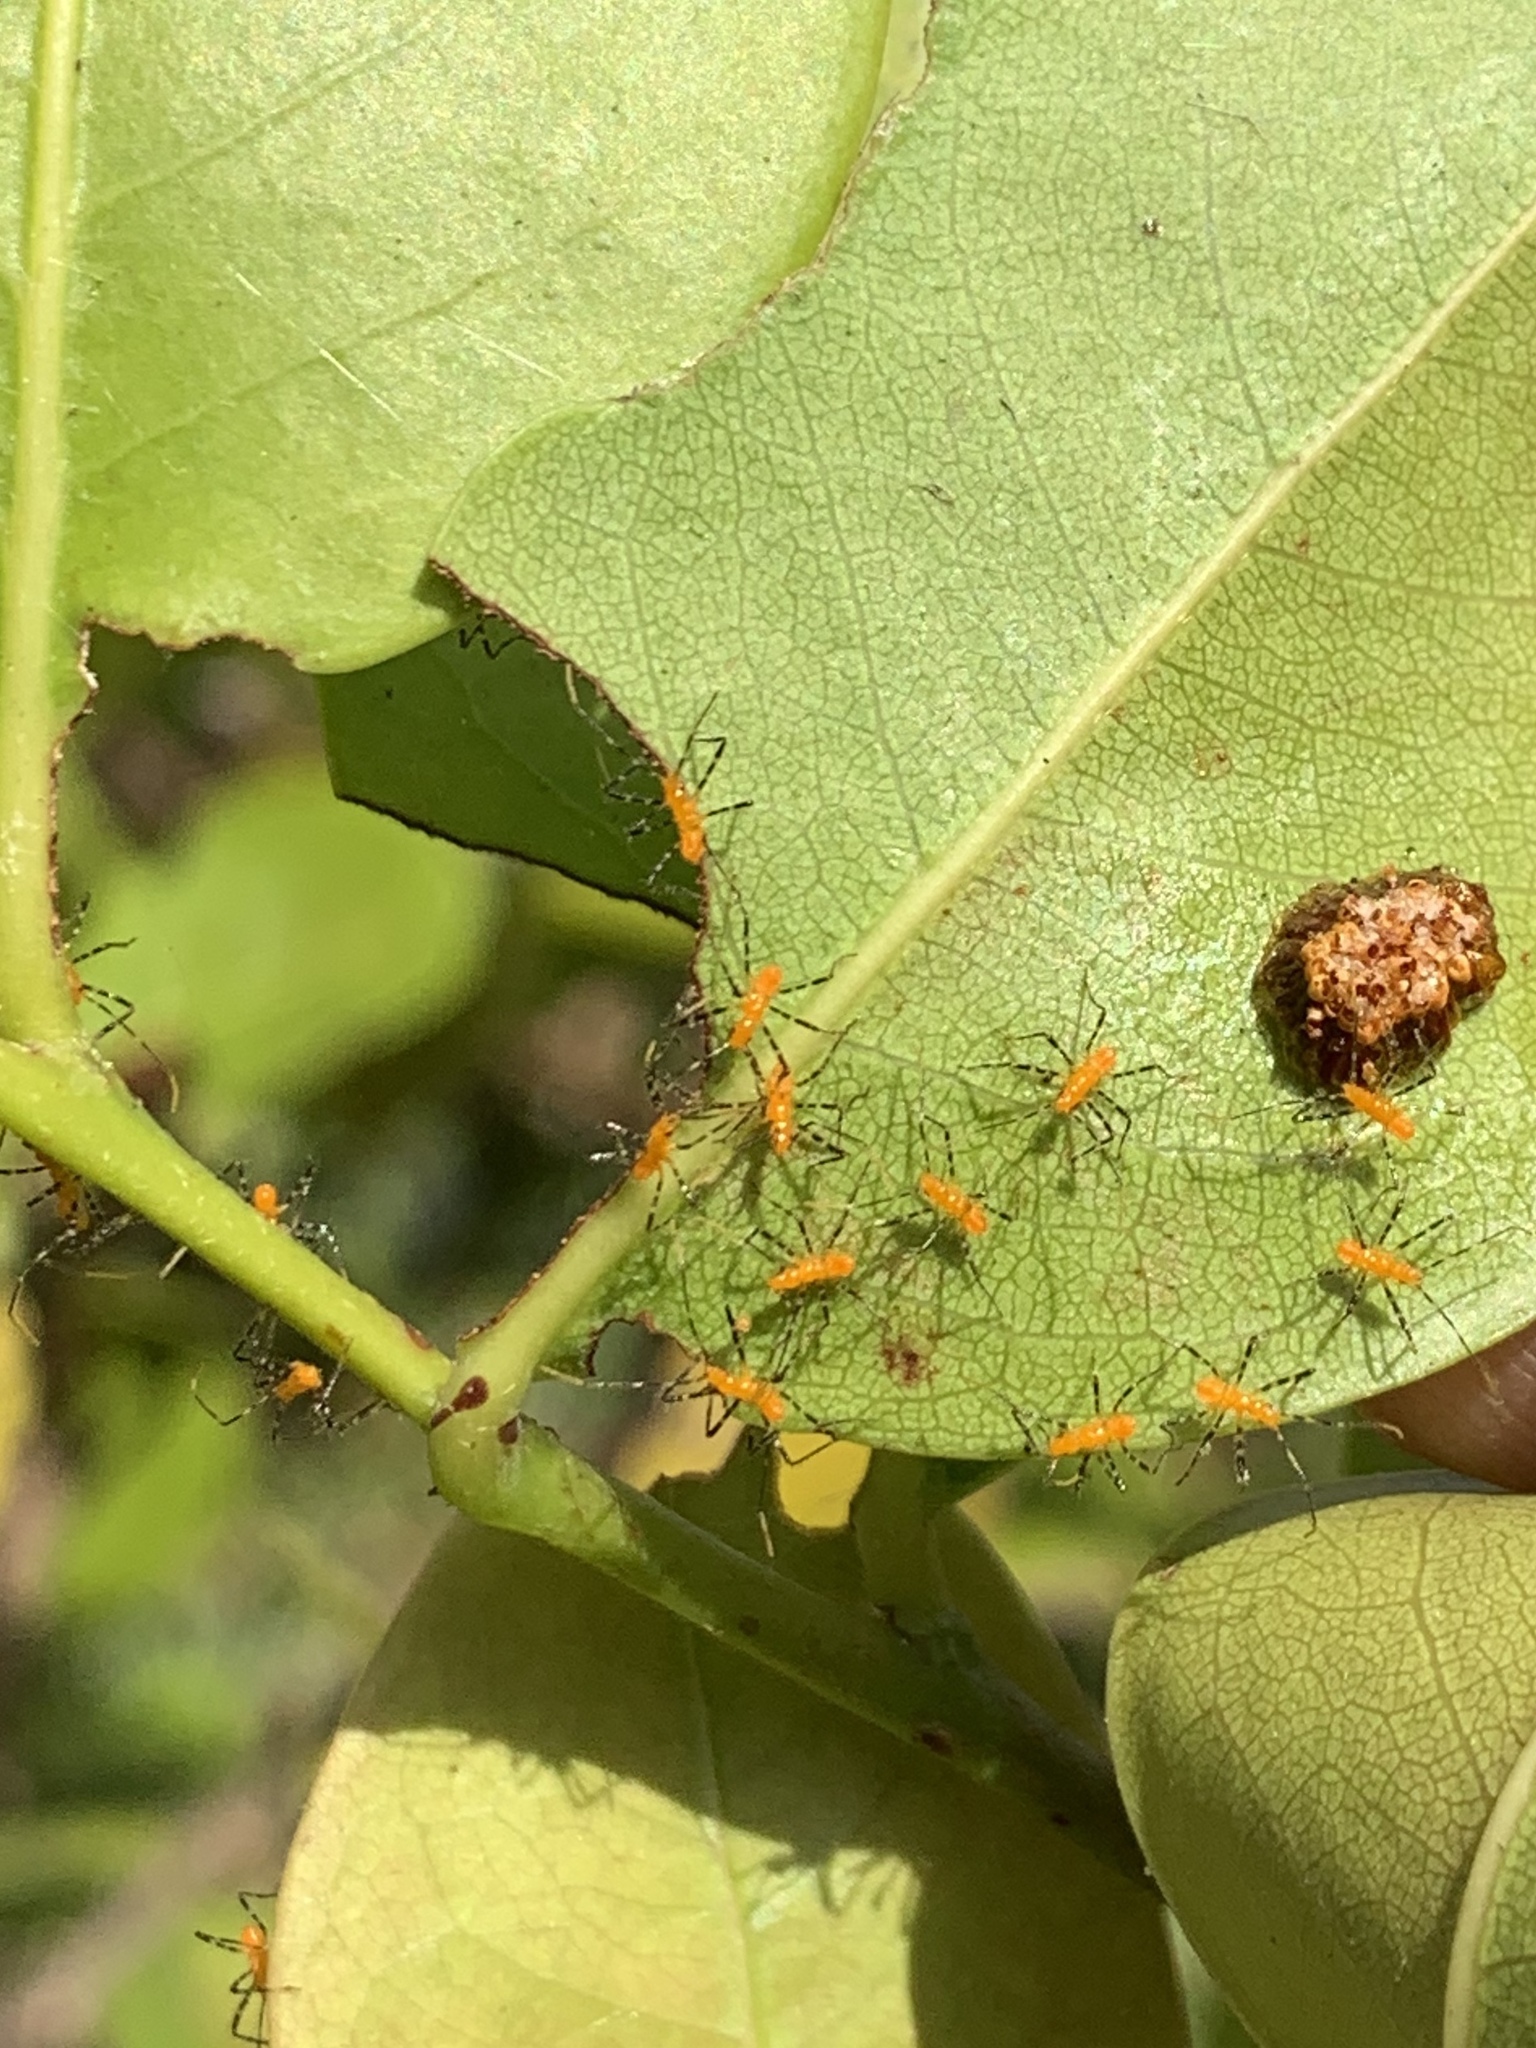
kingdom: Animalia
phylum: Arthropoda
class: Insecta
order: Hemiptera
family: Reduviidae
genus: Zelus
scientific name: Zelus longipes
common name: Milkweed assassin bug
